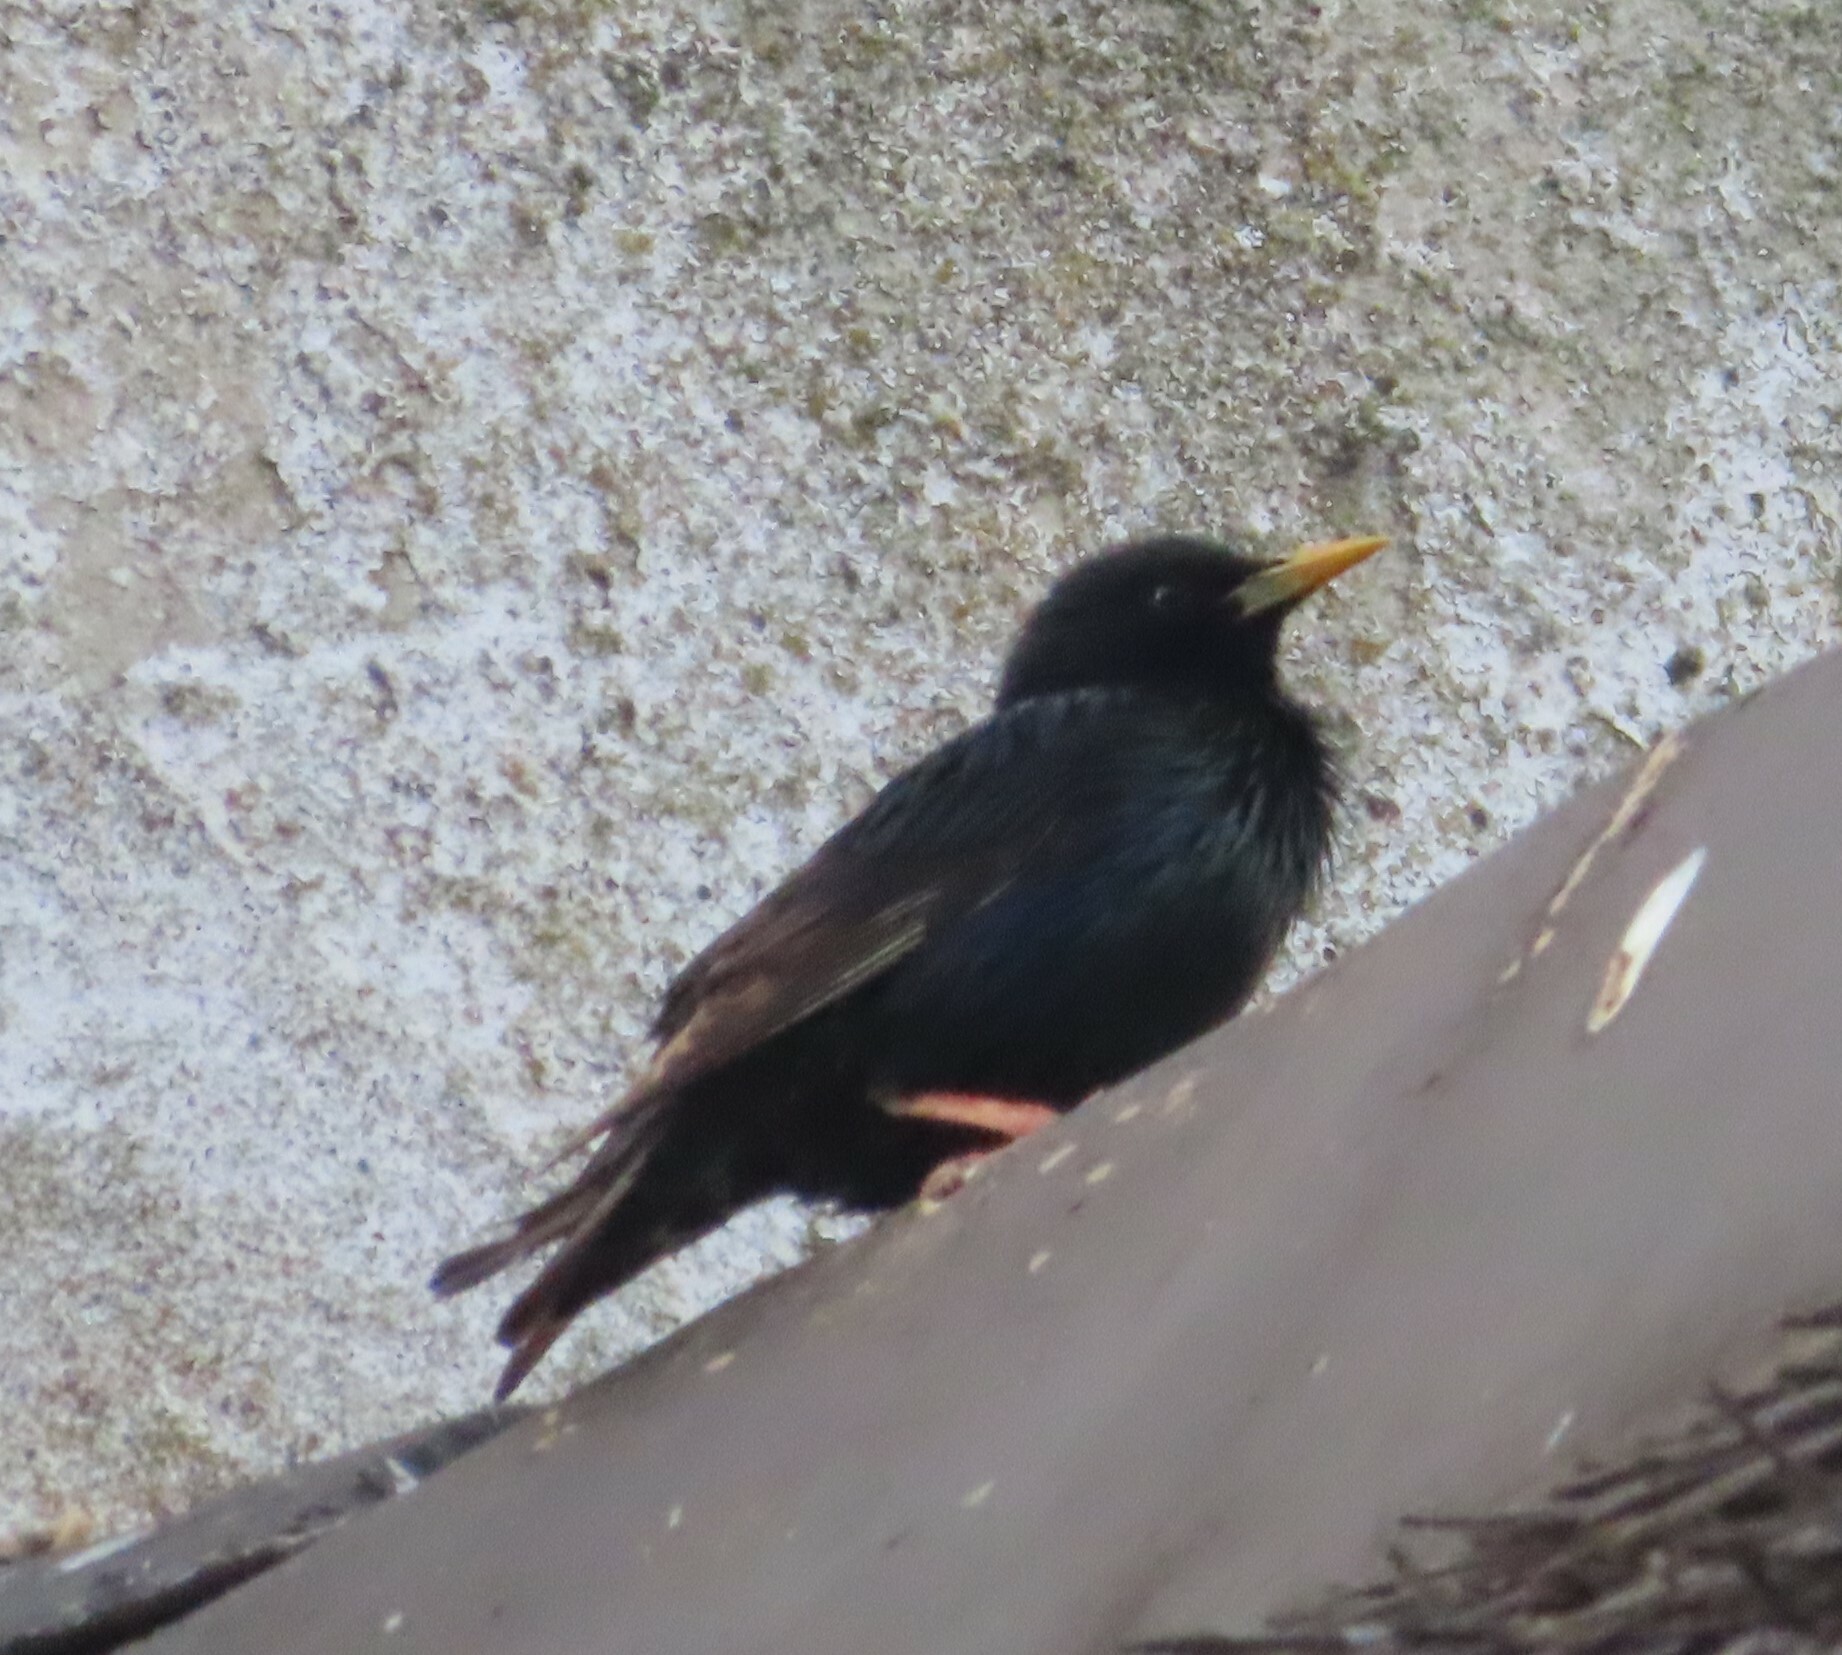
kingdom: Animalia
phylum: Chordata
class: Aves
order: Passeriformes
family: Sturnidae
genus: Sturnus
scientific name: Sturnus vulgaris
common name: Common starling
